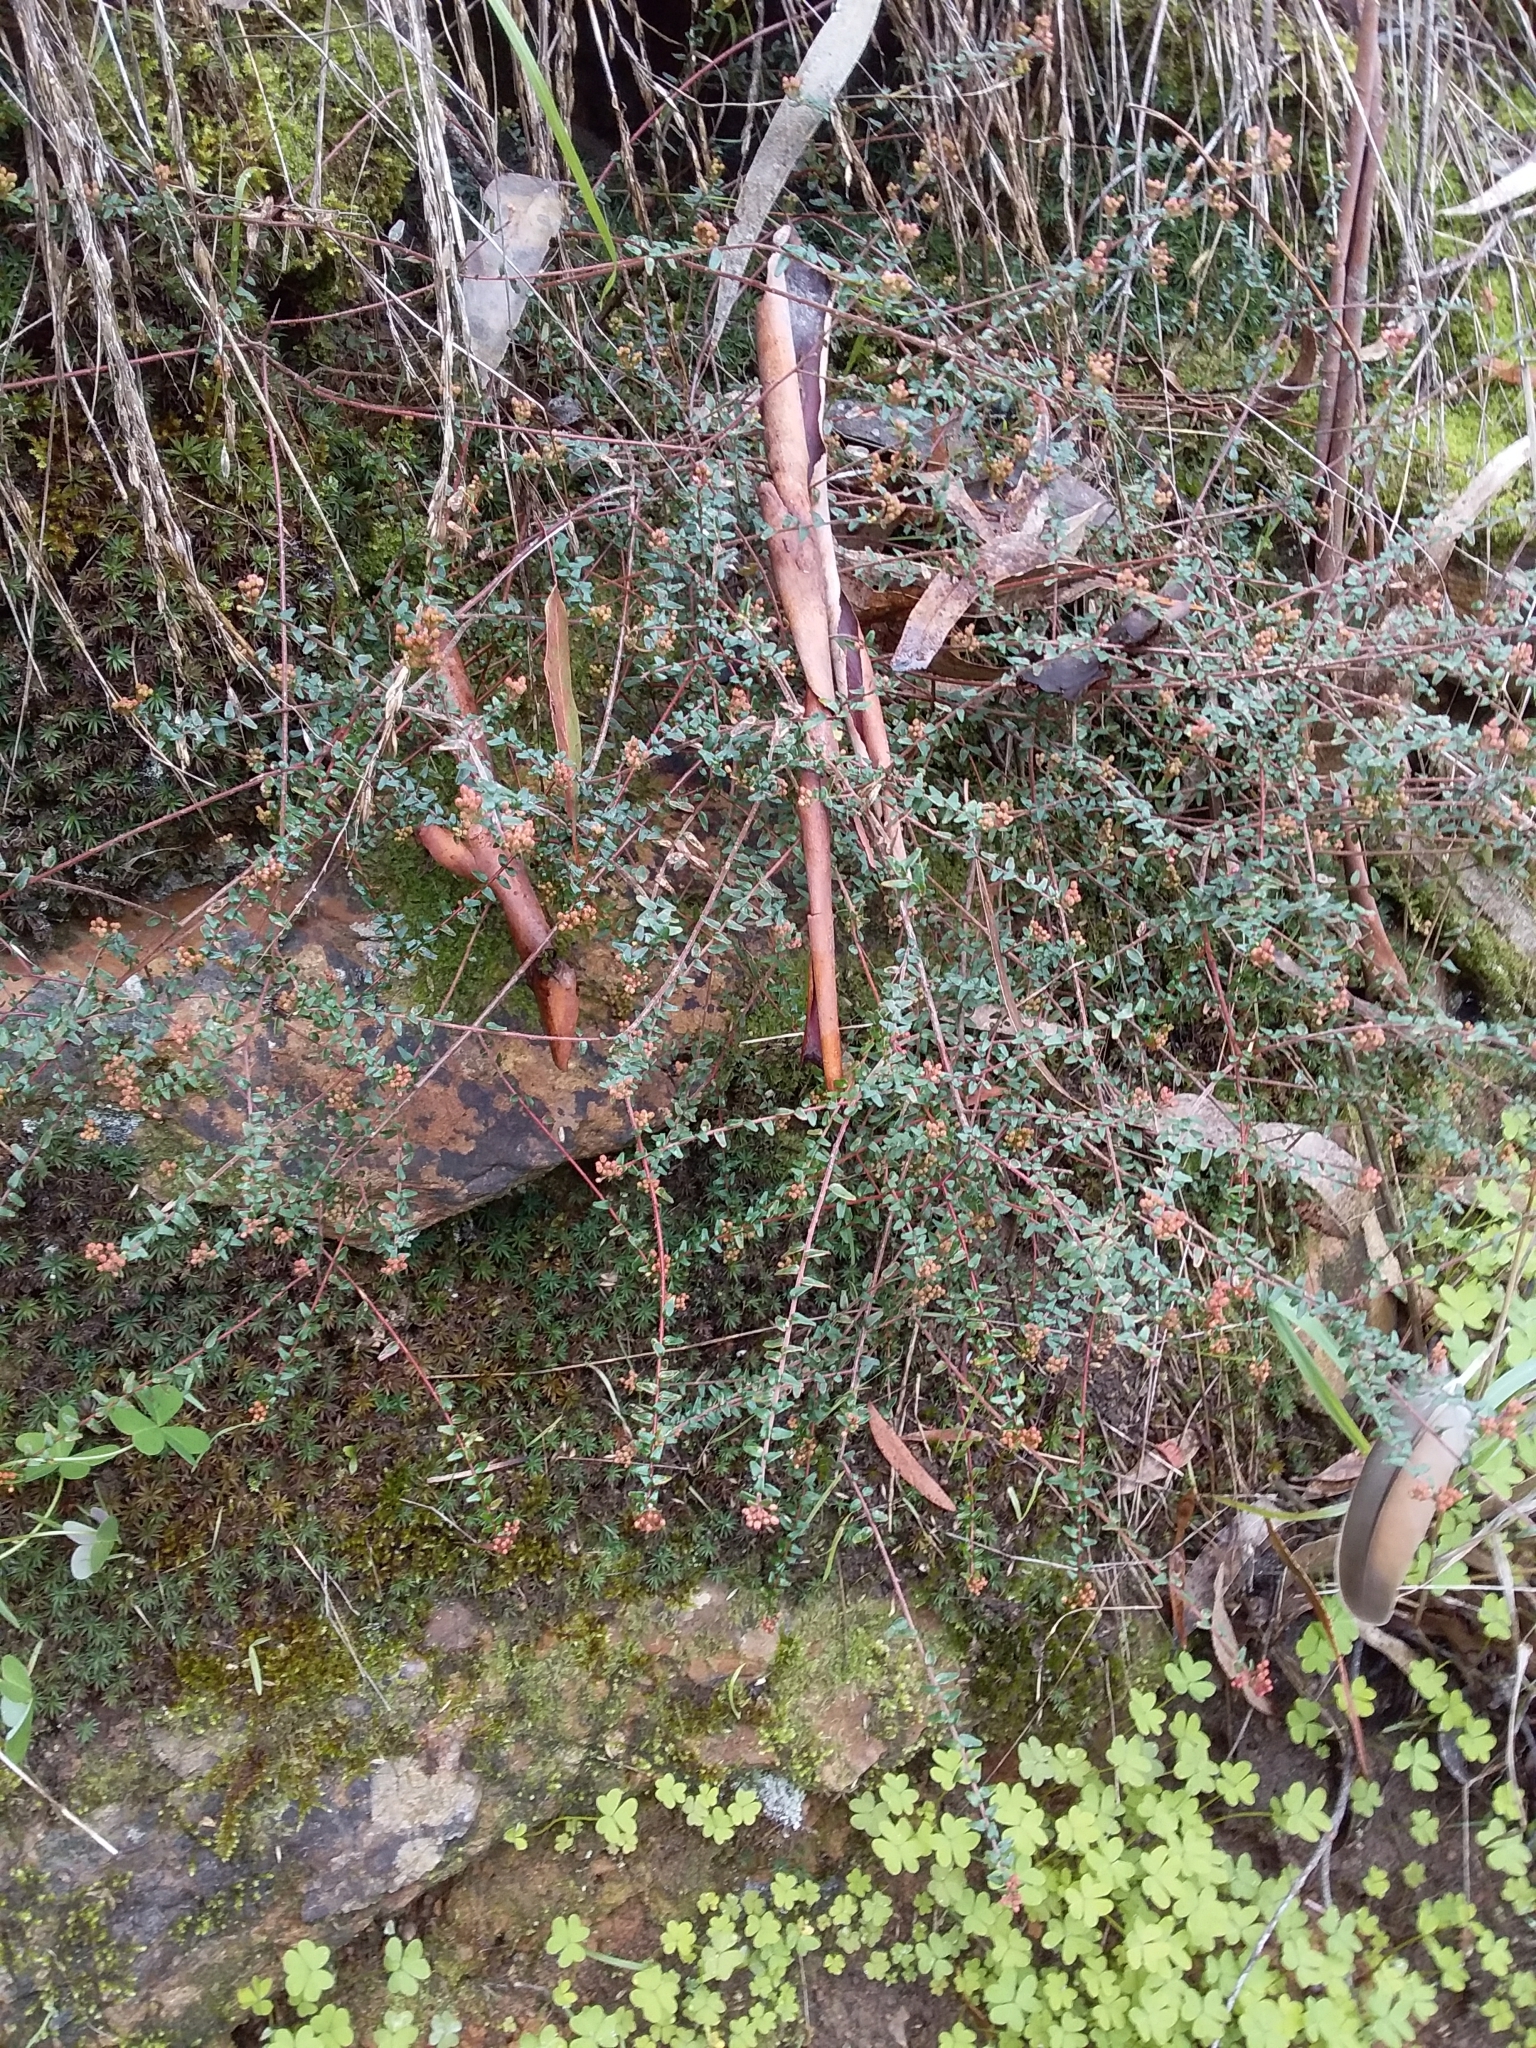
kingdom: Plantae
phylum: Tracheophyta
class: Magnoliopsida
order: Sapindales
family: Rutaceae
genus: Leionema
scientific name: Leionema hillebrandii
